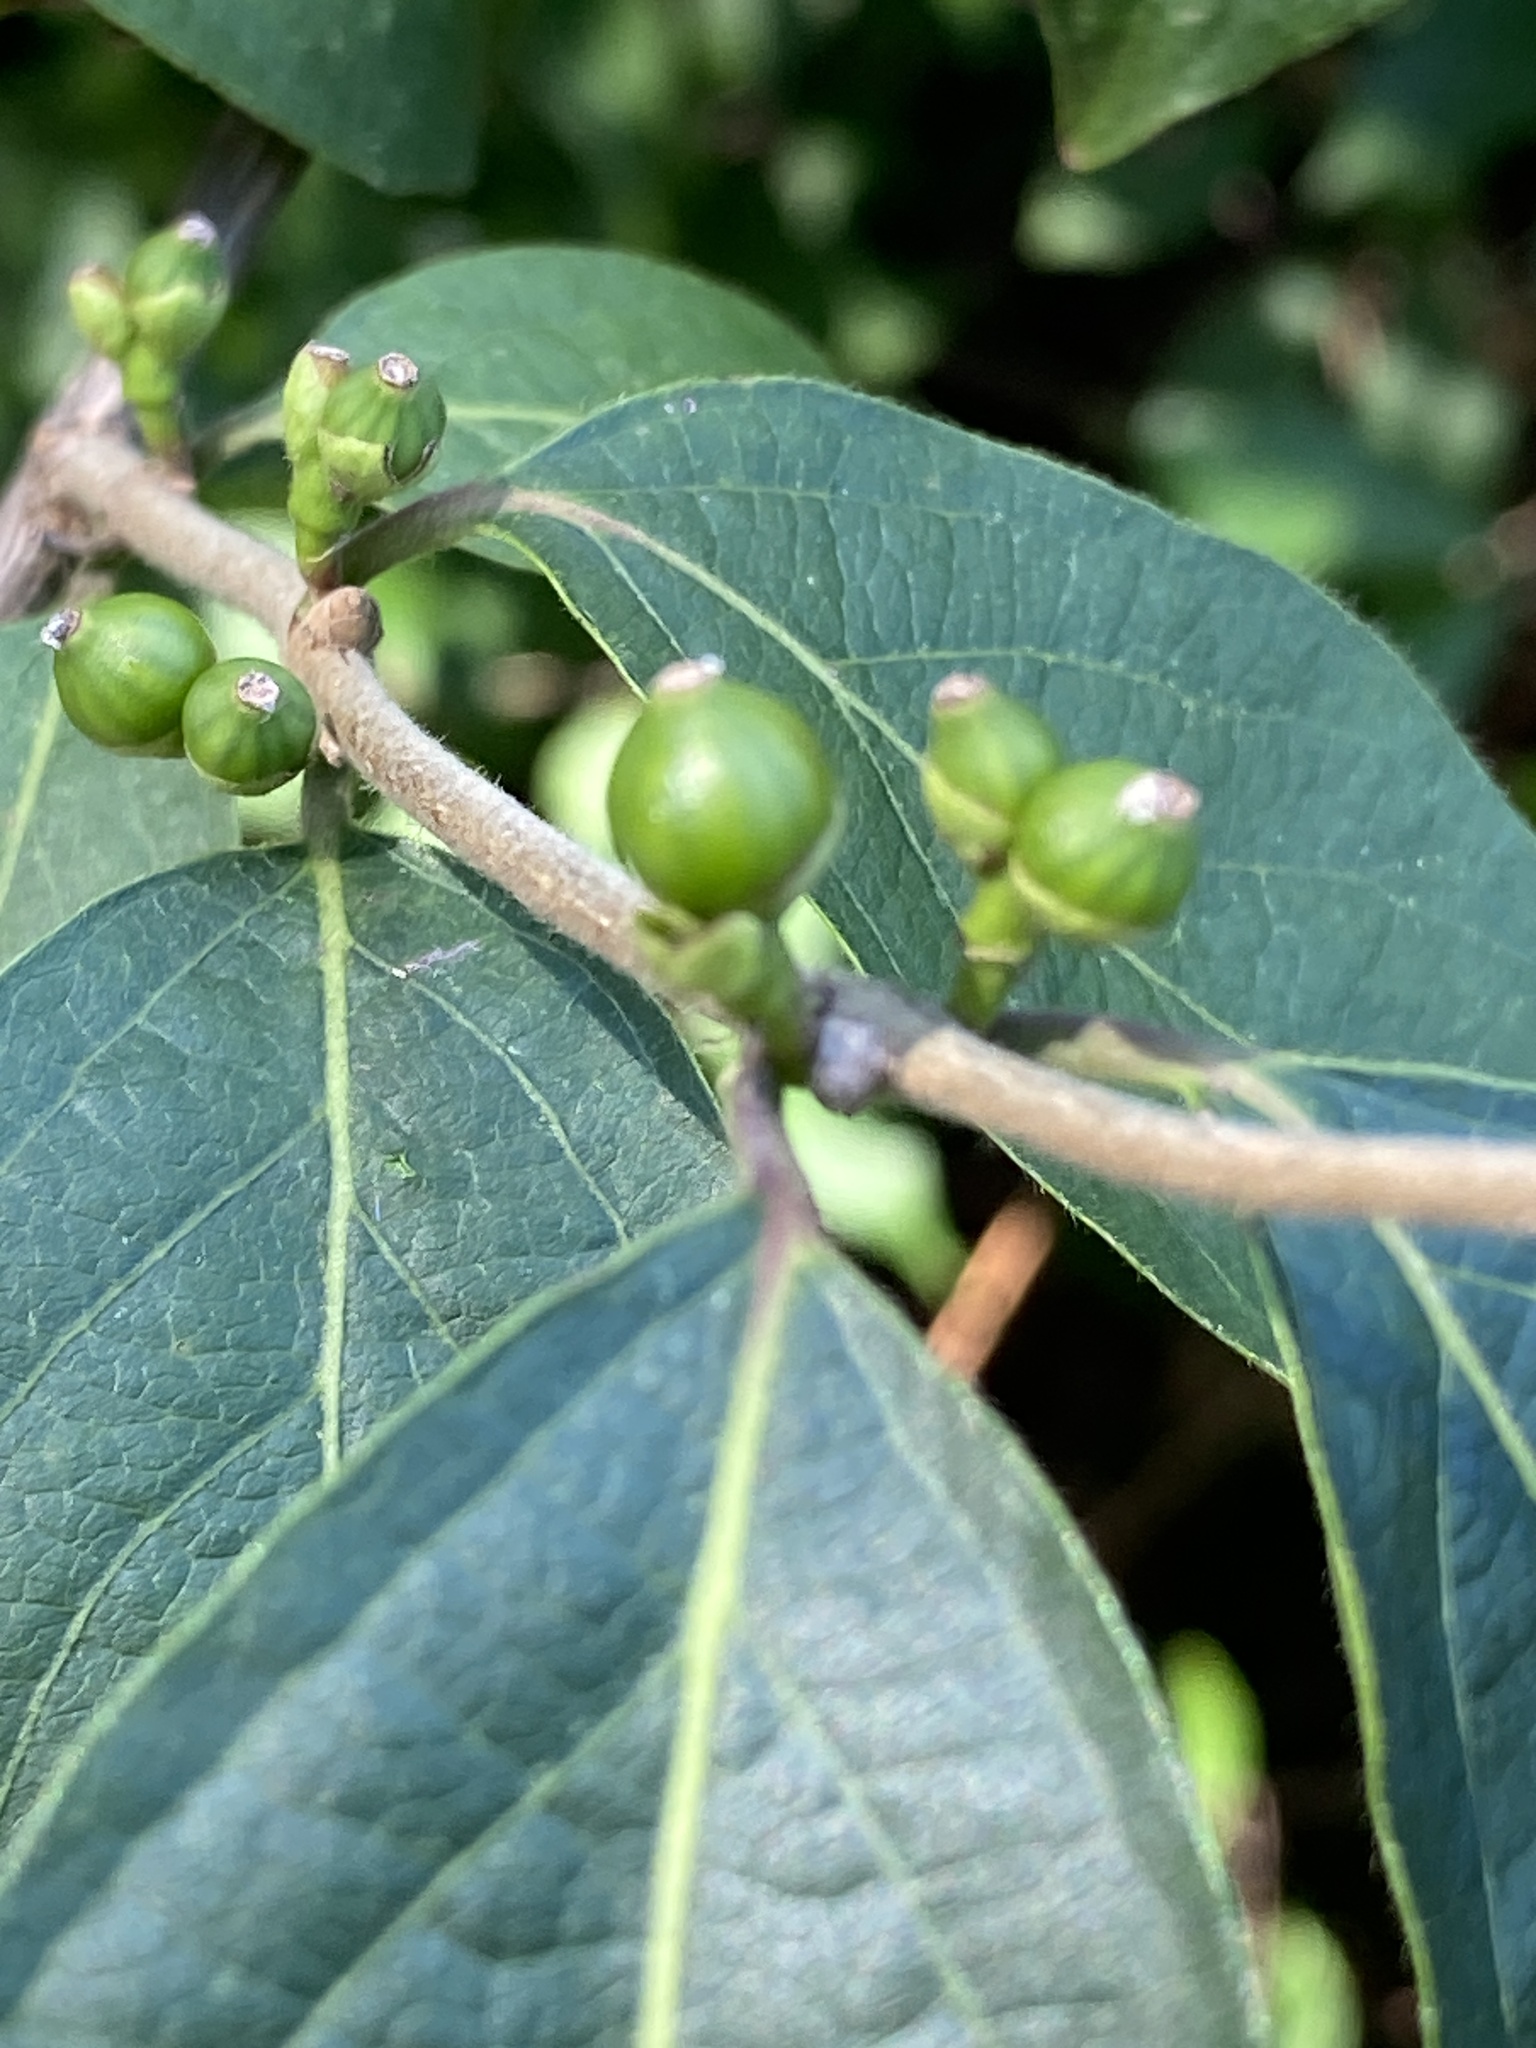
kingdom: Plantae
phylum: Tracheophyta
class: Magnoliopsida
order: Dipsacales
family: Caprifoliaceae
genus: Lonicera
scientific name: Lonicera maackii
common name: Amur honeysuckle
